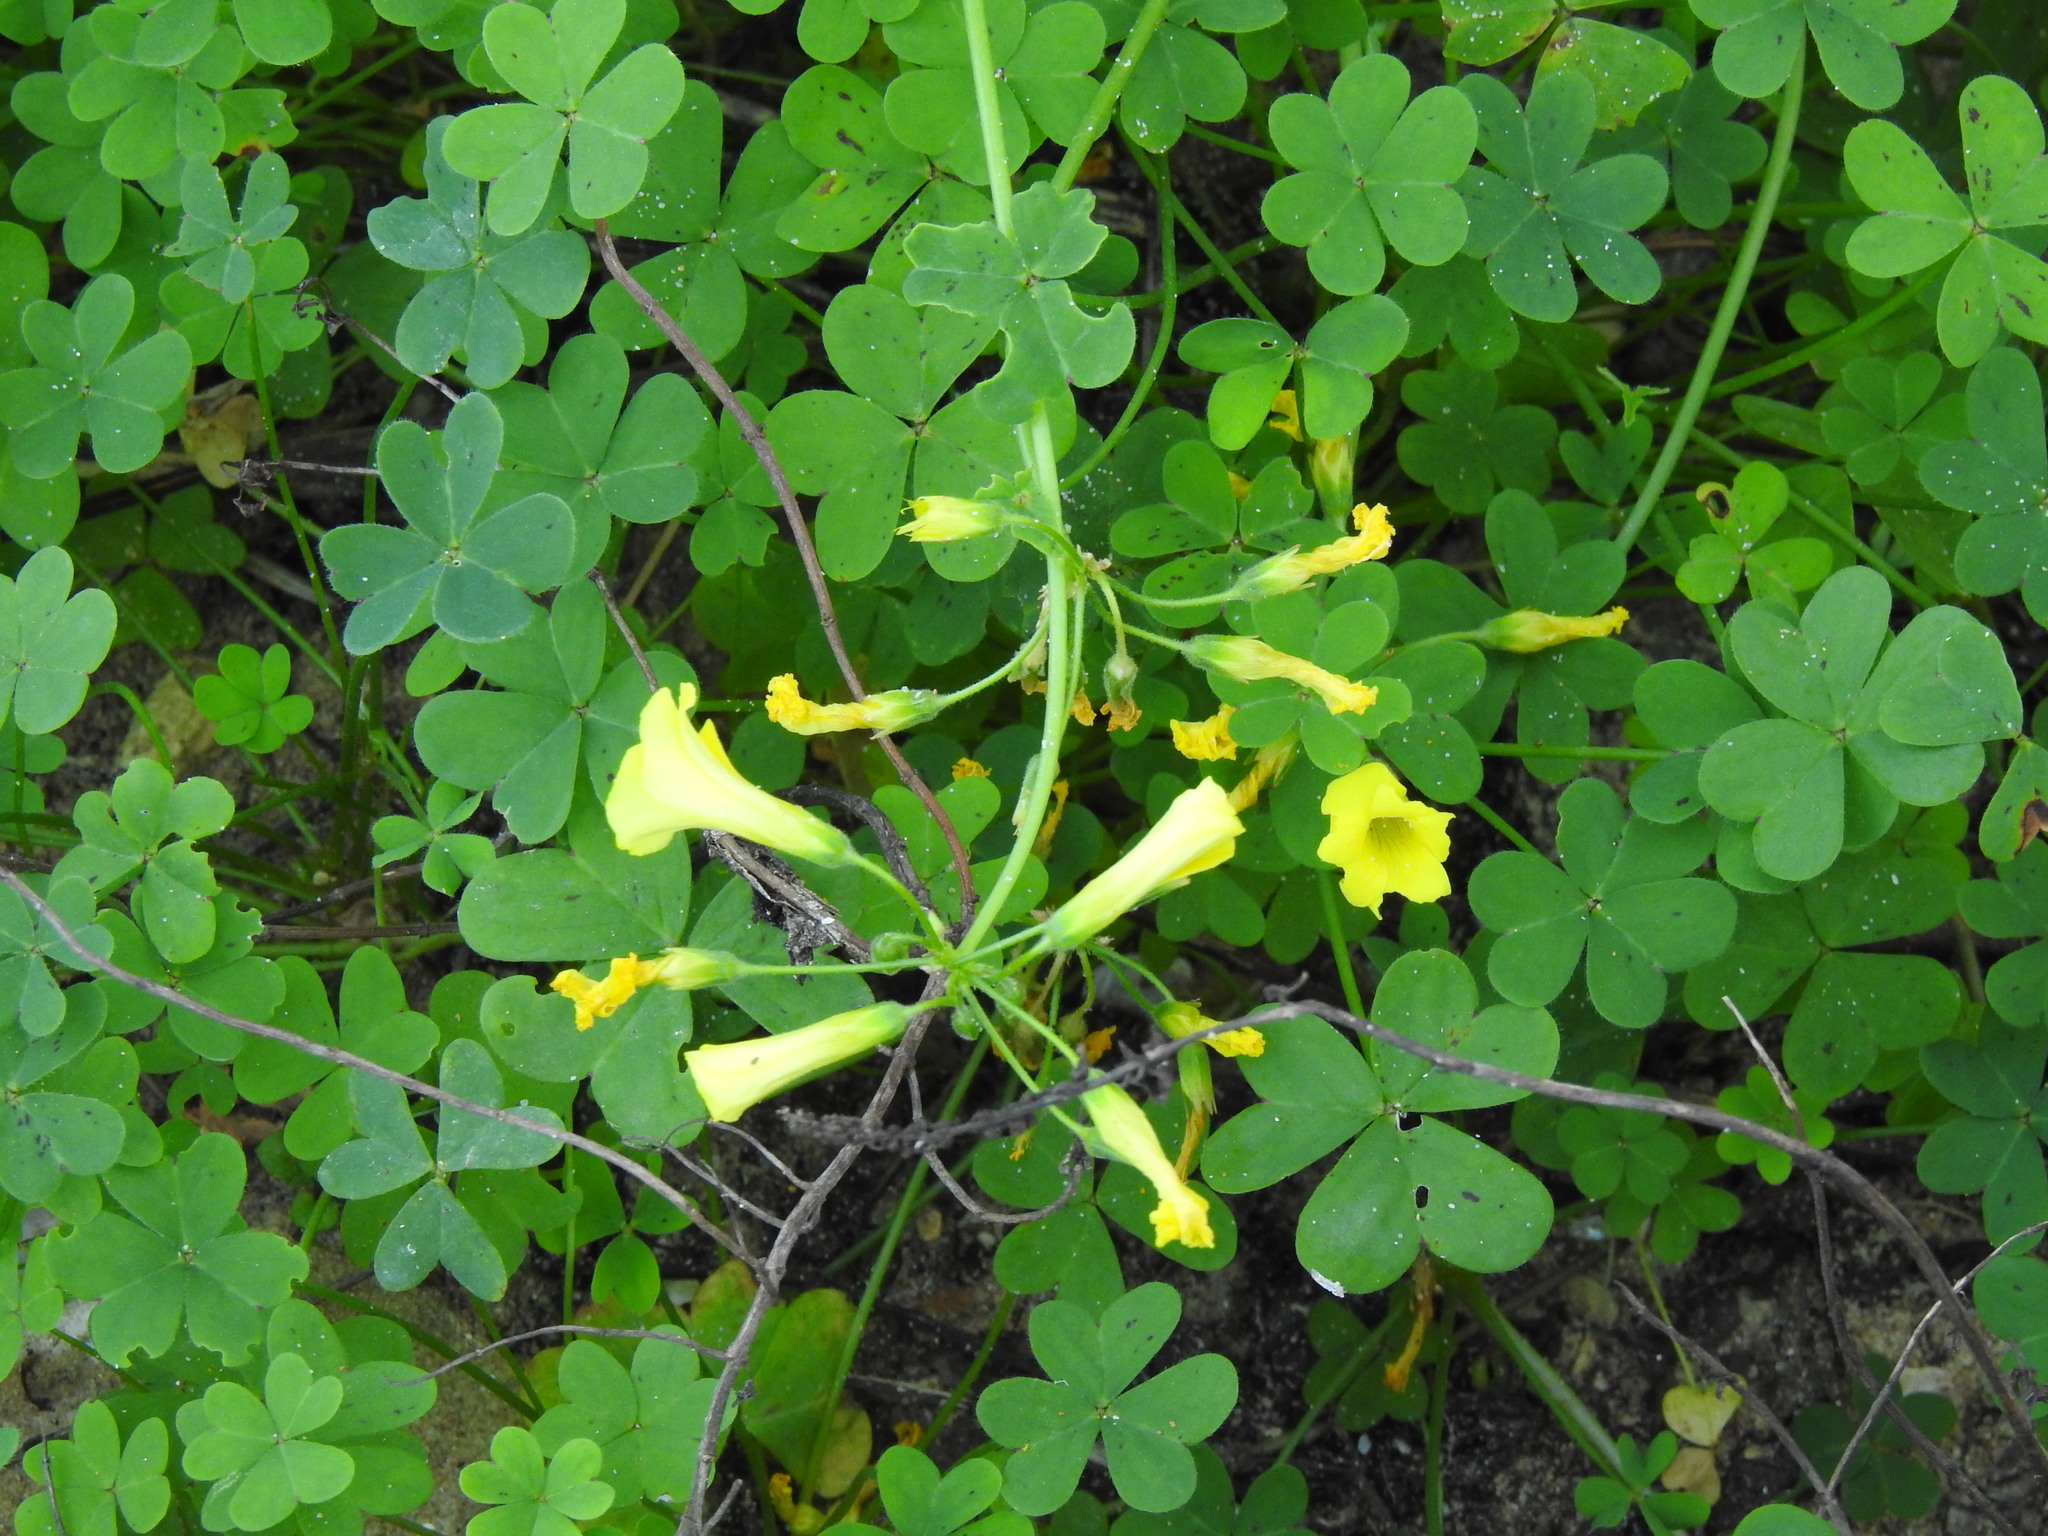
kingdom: Plantae
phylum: Tracheophyta
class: Magnoliopsida
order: Oxalidales
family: Oxalidaceae
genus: Oxalis
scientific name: Oxalis pes-caprae
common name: Bermuda-buttercup
